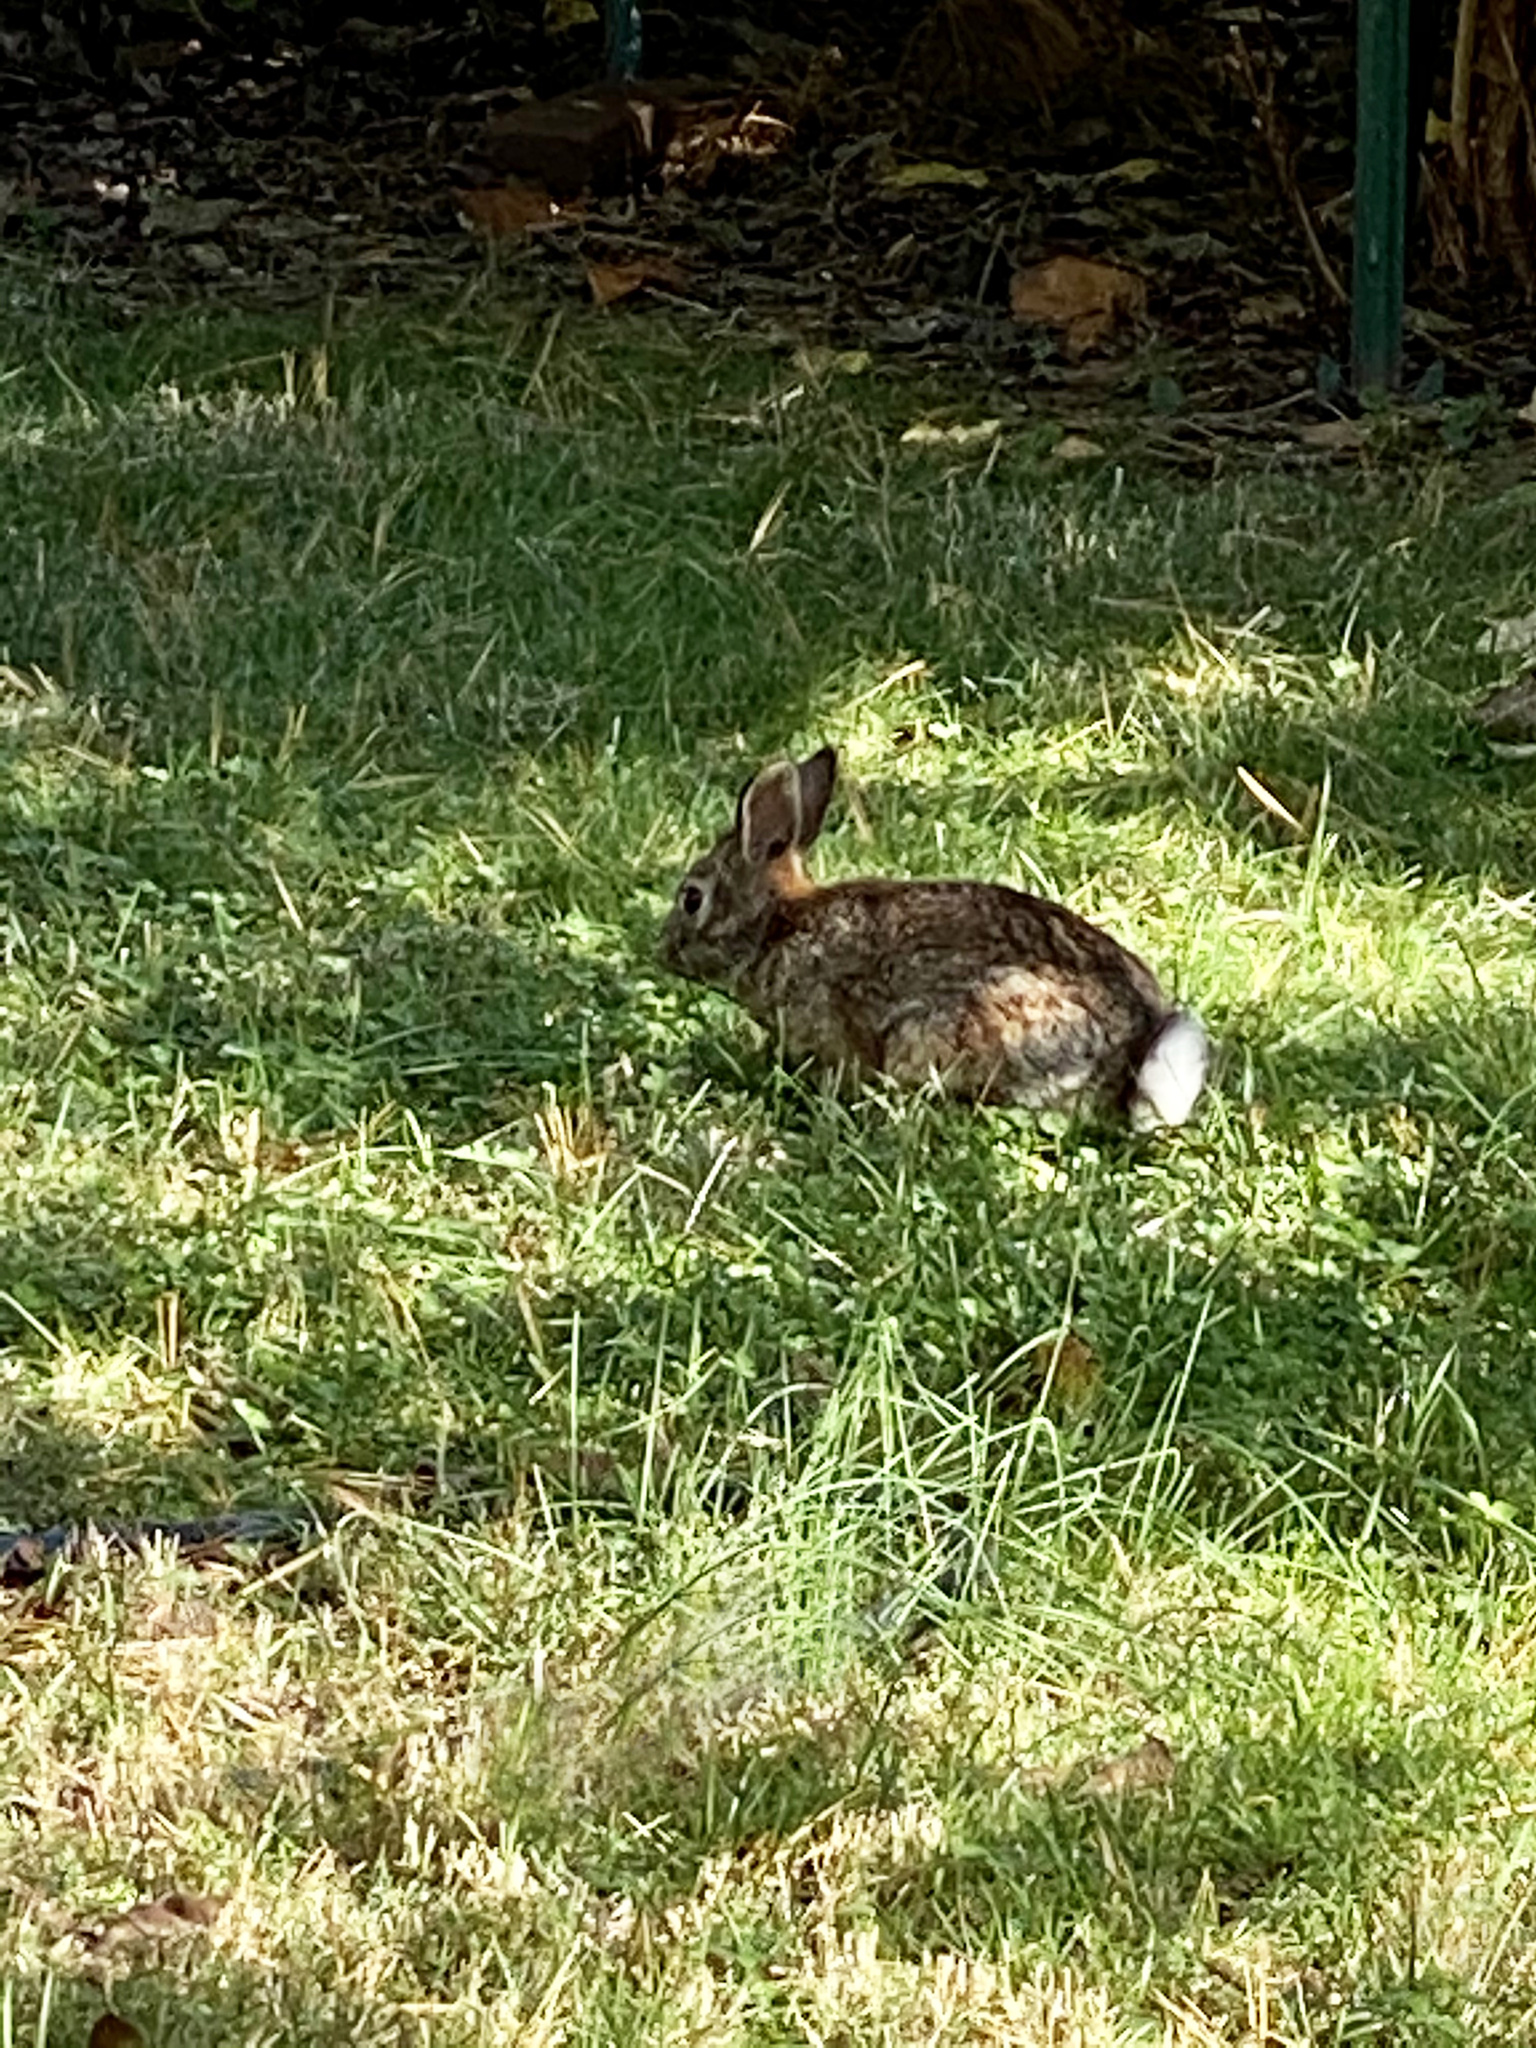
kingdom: Animalia
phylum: Chordata
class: Mammalia
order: Lagomorpha
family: Leporidae
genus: Sylvilagus
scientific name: Sylvilagus floridanus
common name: Eastern cottontail
